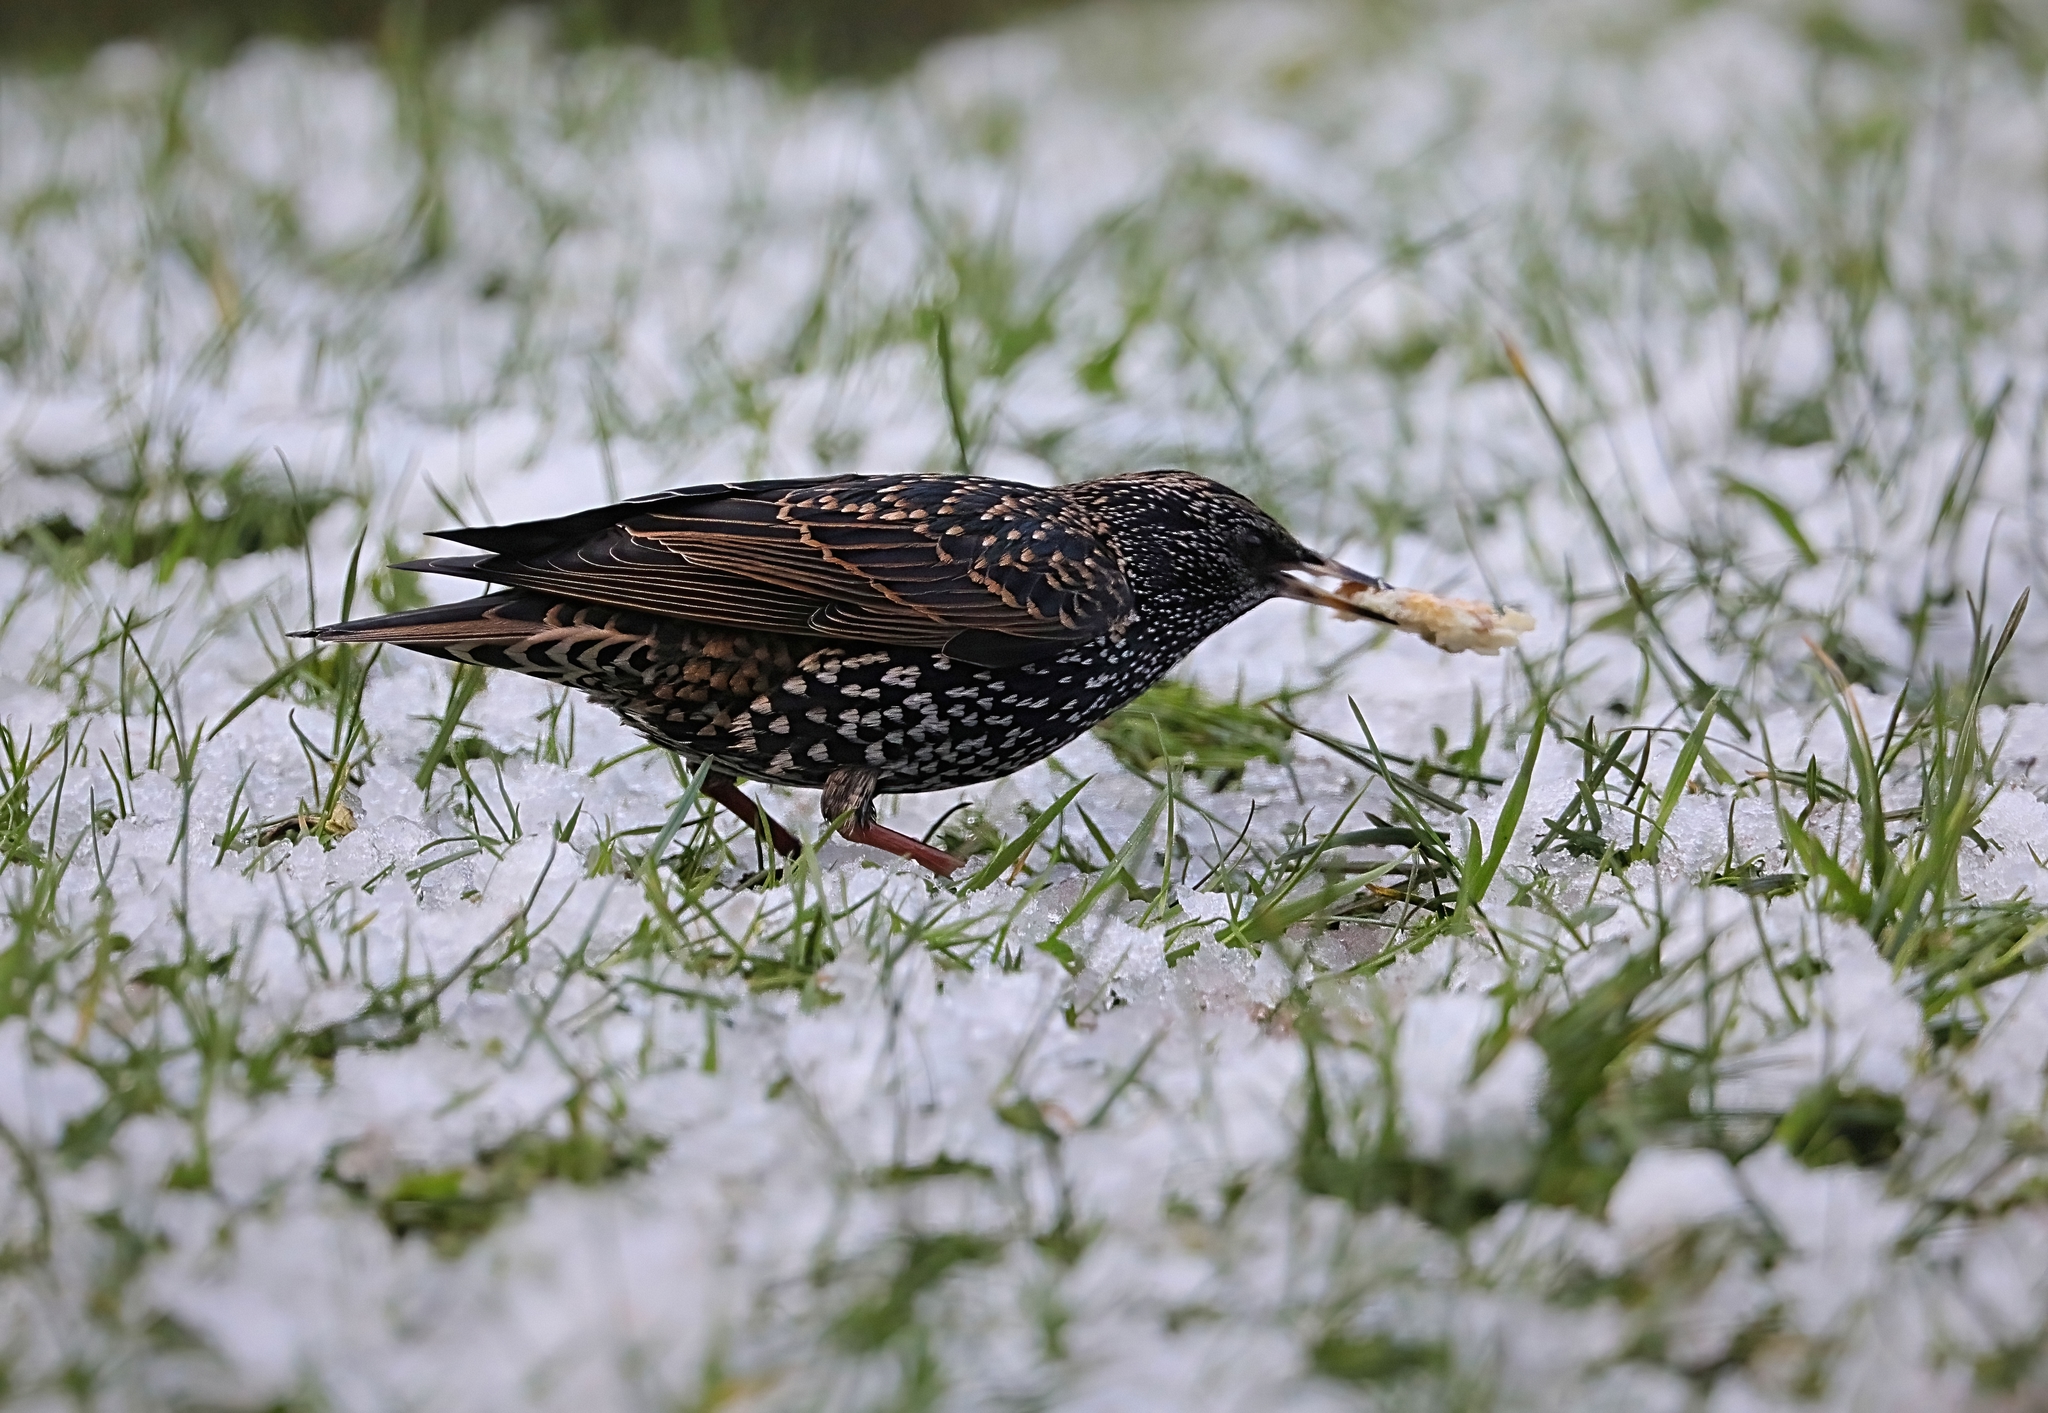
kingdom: Animalia
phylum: Chordata
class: Aves
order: Passeriformes
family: Sturnidae
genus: Sturnus
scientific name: Sturnus vulgaris
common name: Common starling
